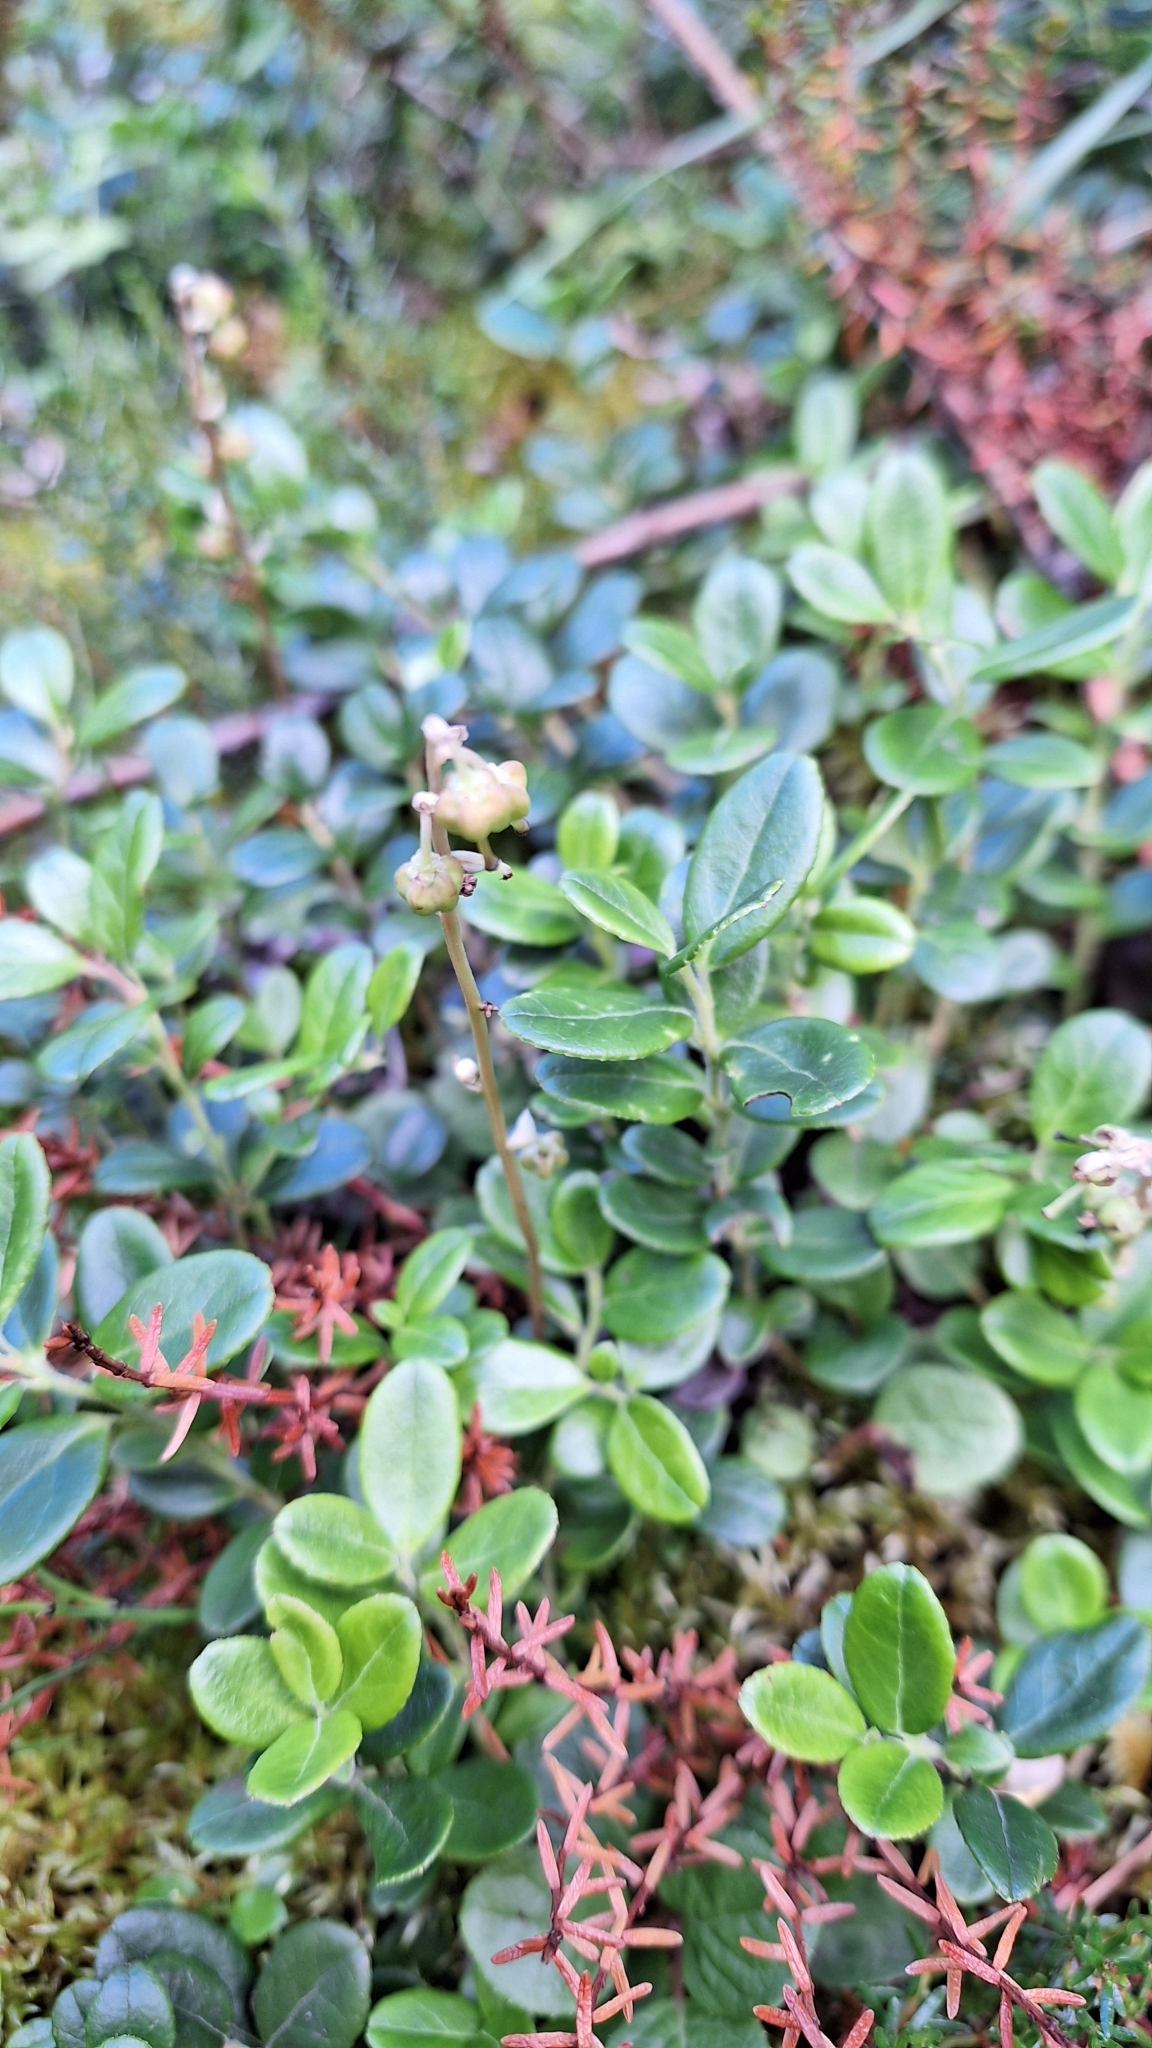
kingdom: Plantae
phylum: Tracheophyta
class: Magnoliopsida
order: Ericales
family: Ericaceae
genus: Vaccinium
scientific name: Vaccinium vitis-idaea
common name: Cowberry
